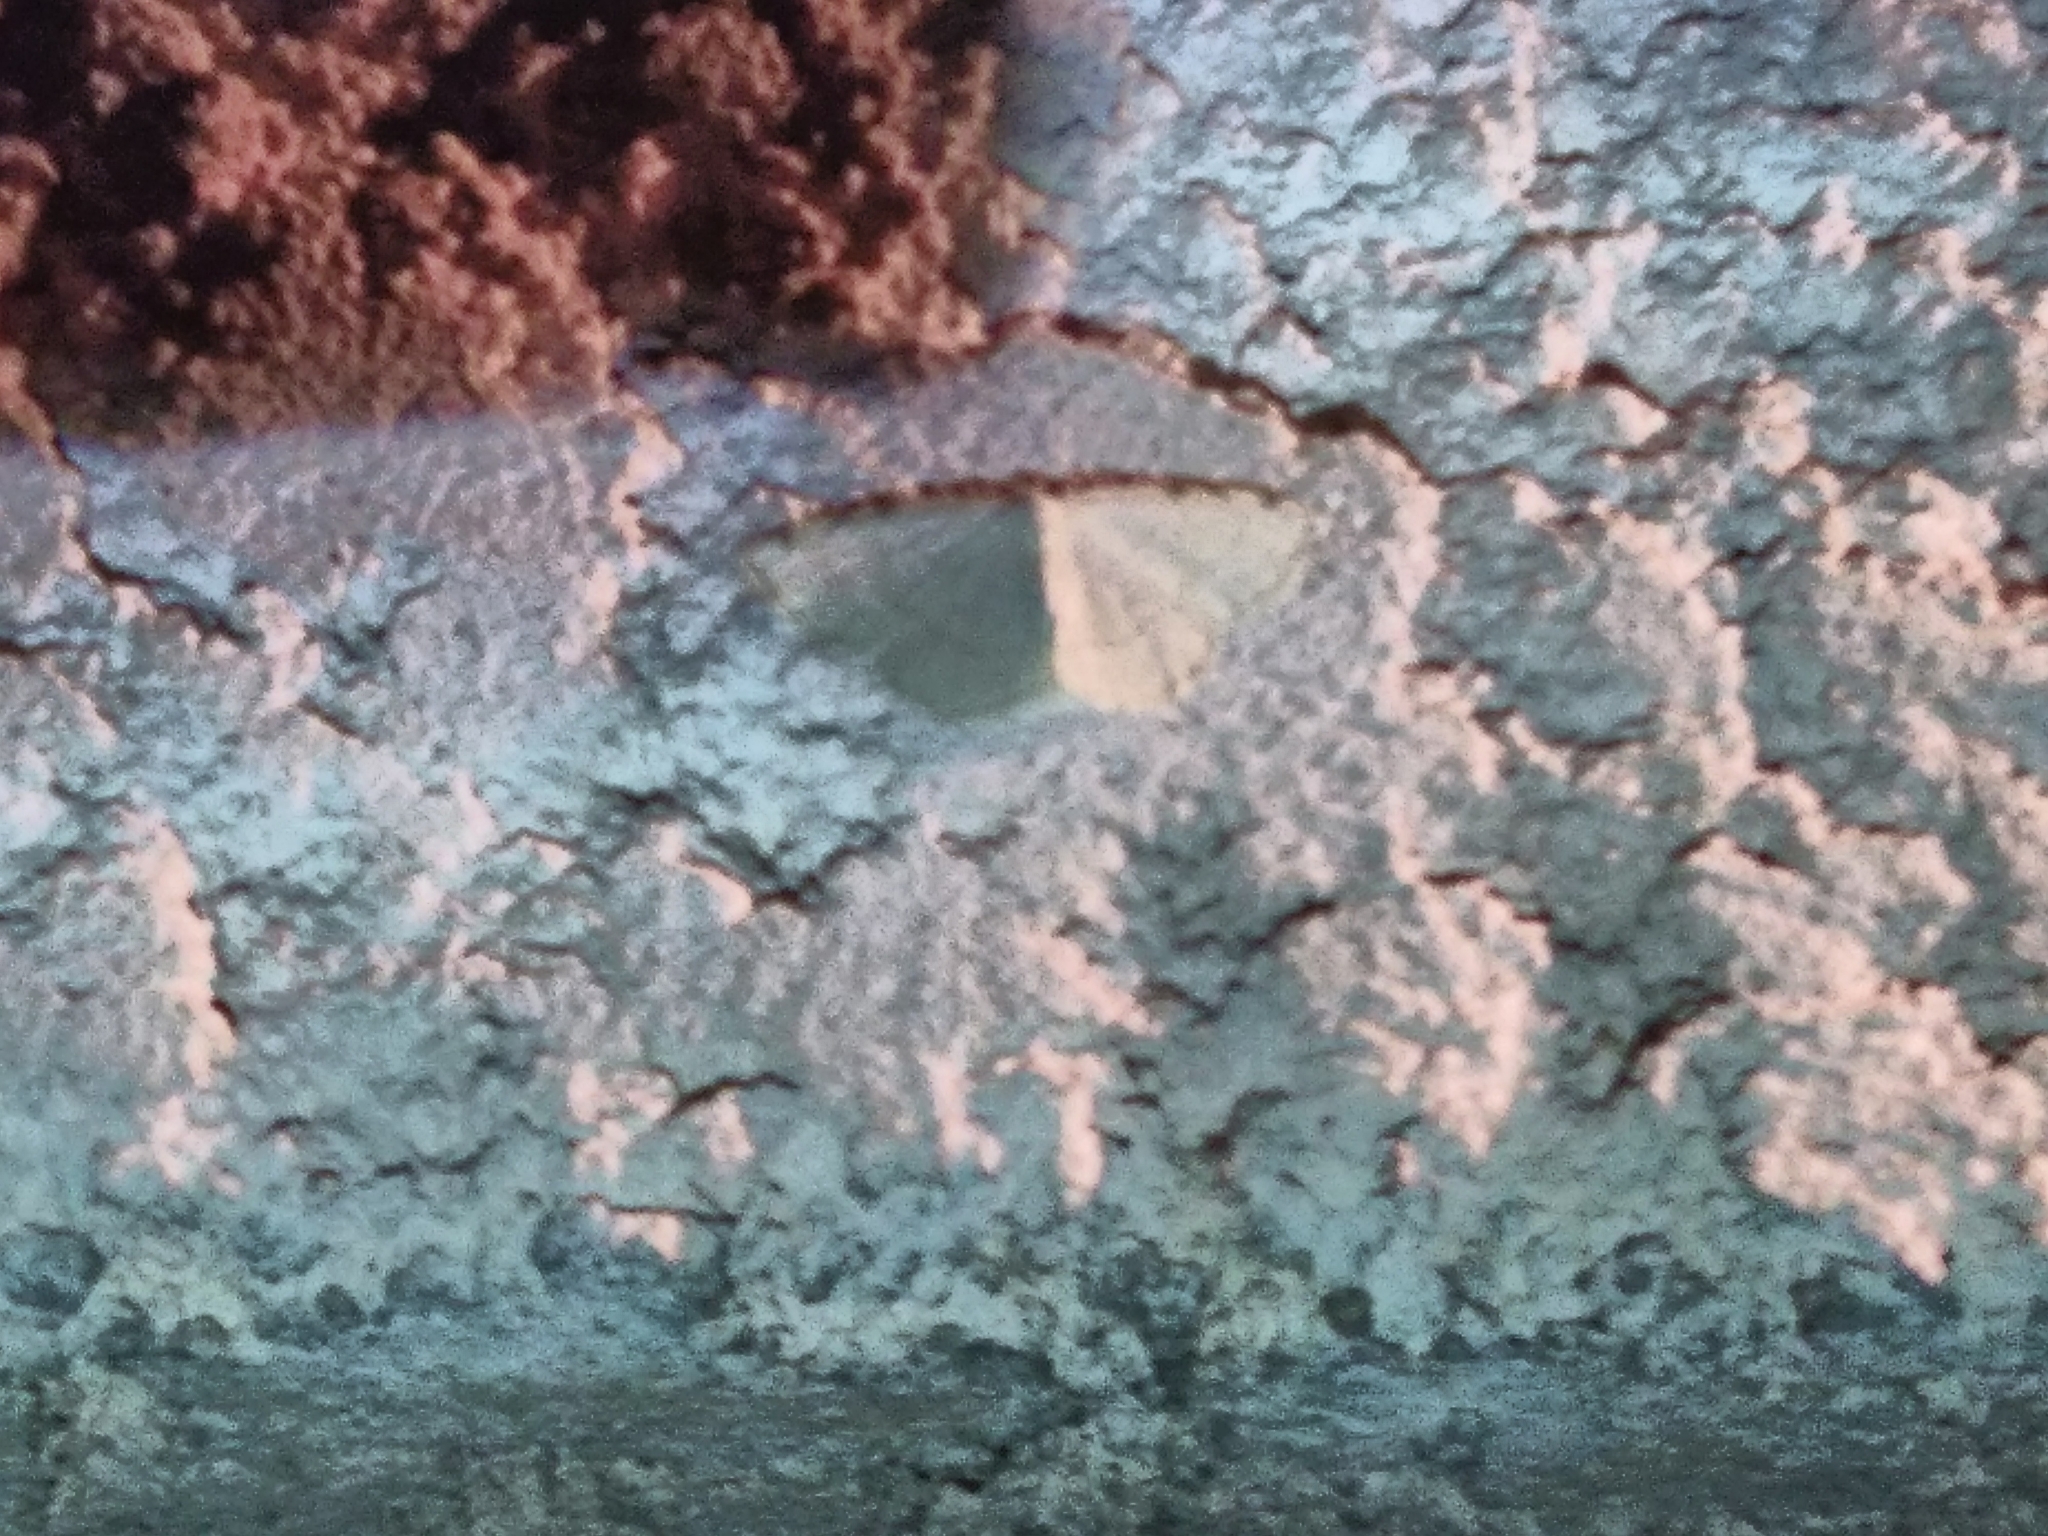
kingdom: Animalia
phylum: Arthropoda
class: Insecta
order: Lepidoptera
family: Geometridae
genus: Stegania
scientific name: Stegania trimaculata
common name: Dorset cream wave
